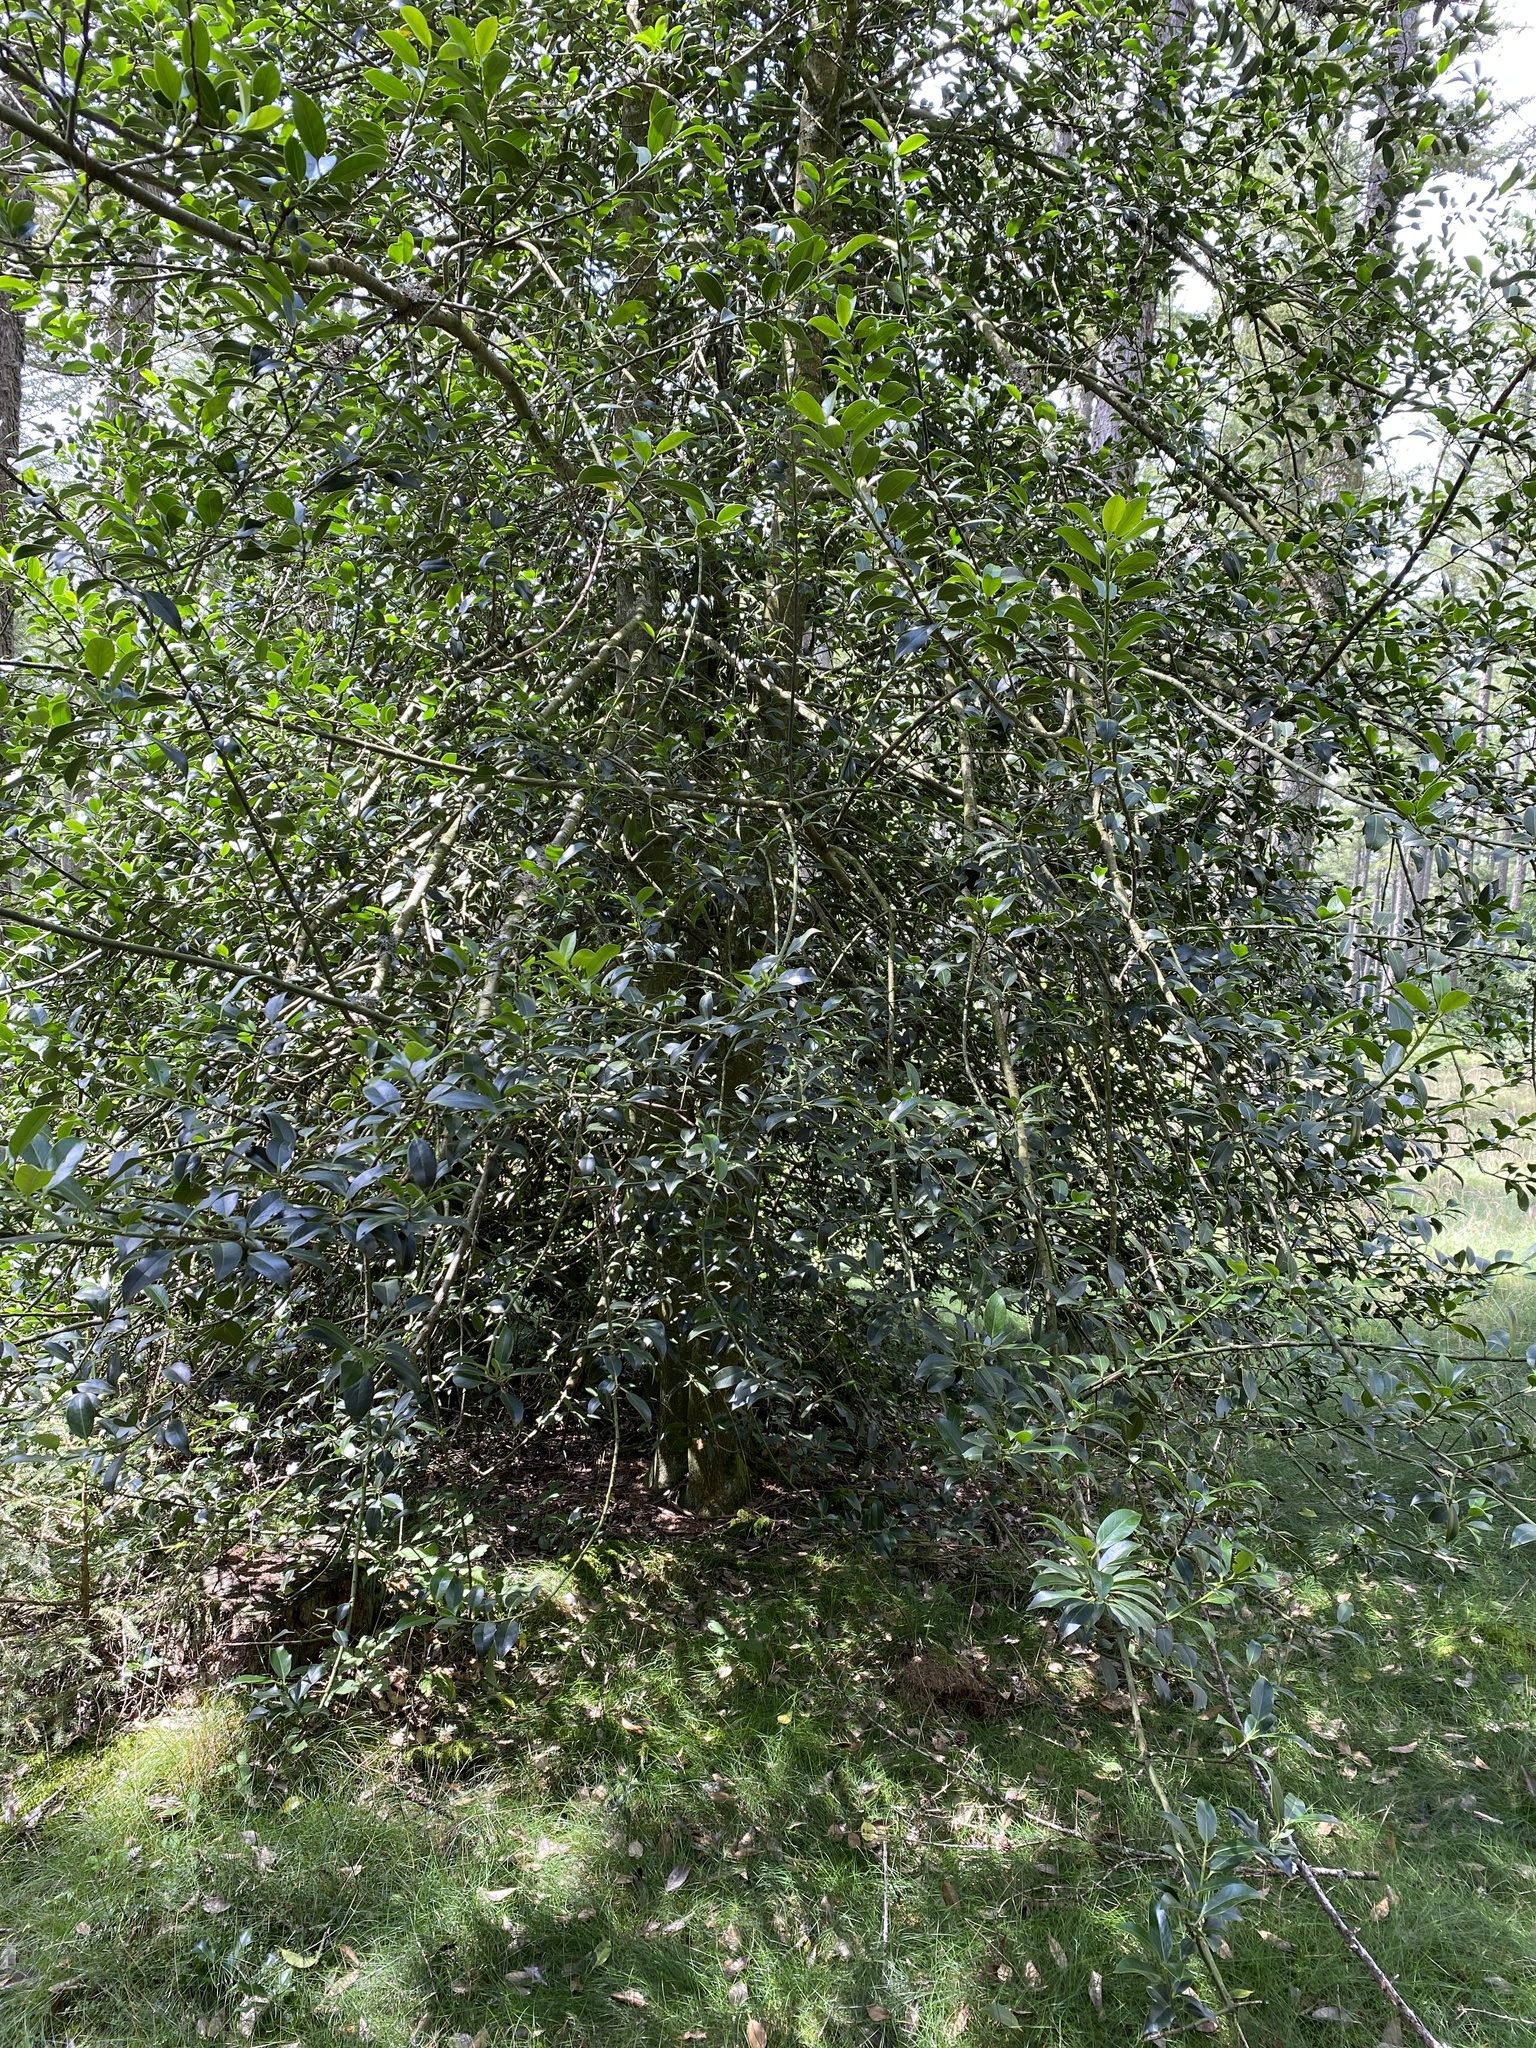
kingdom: Plantae
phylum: Tracheophyta
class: Magnoliopsida
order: Aquifoliales
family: Aquifoliaceae
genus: Ilex
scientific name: Ilex aquifolium
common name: English holly
